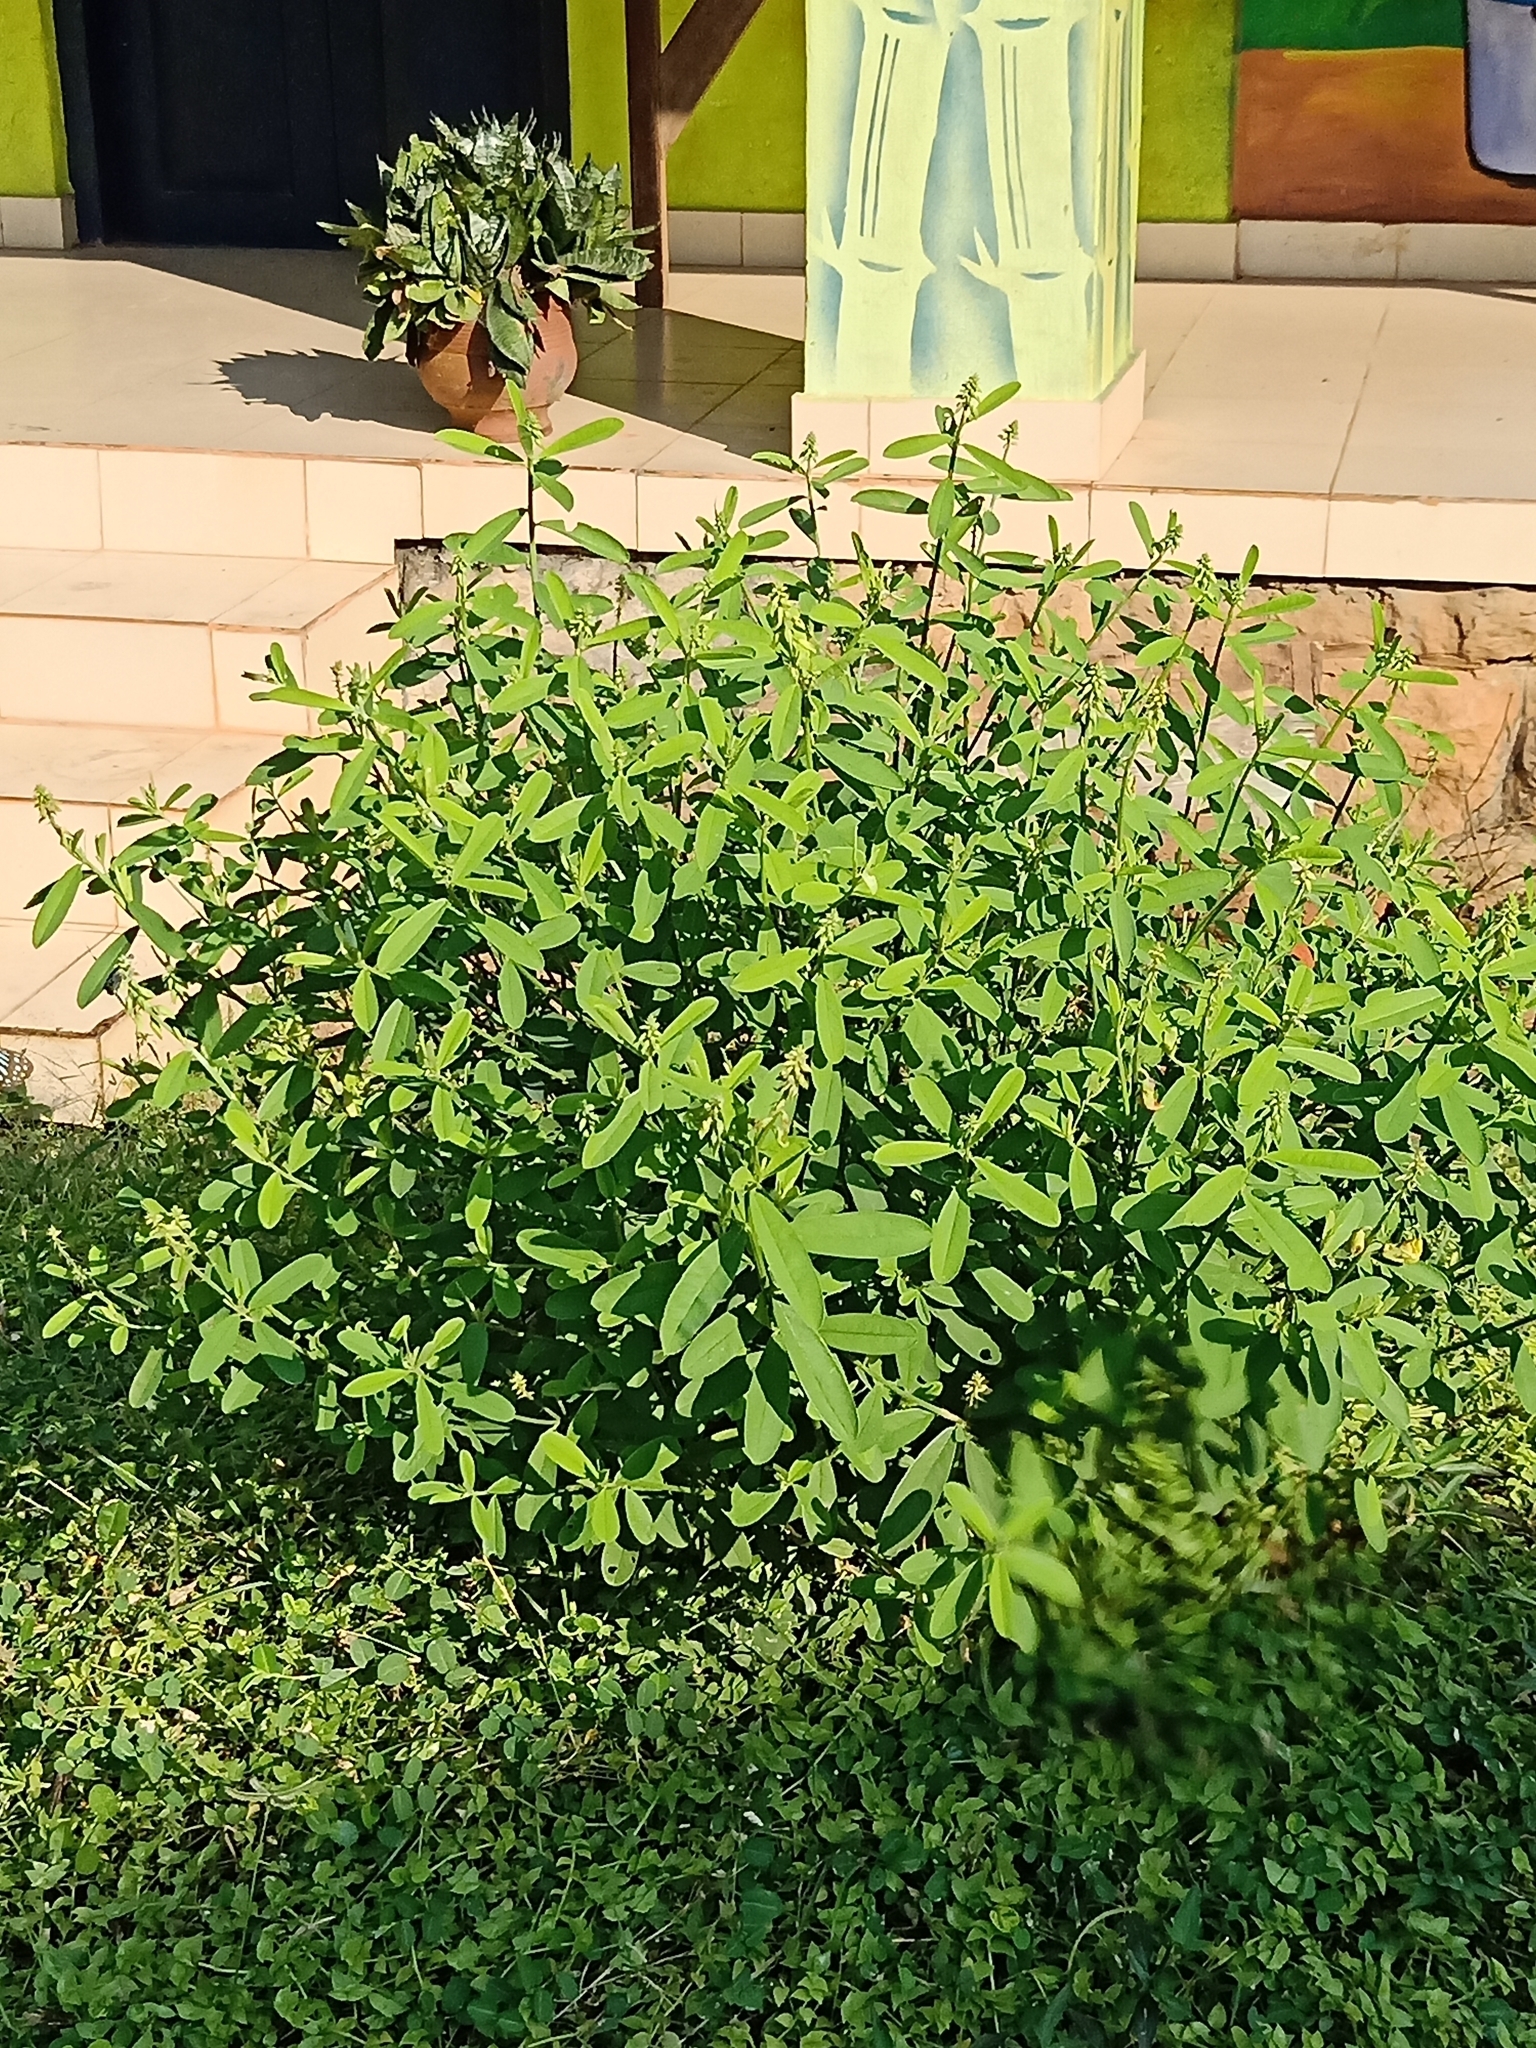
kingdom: Plantae
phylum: Tracheophyta
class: Magnoliopsida
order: Fabales
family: Fabaceae
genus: Crotalaria
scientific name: Crotalaria retusa
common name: Rattleweed
